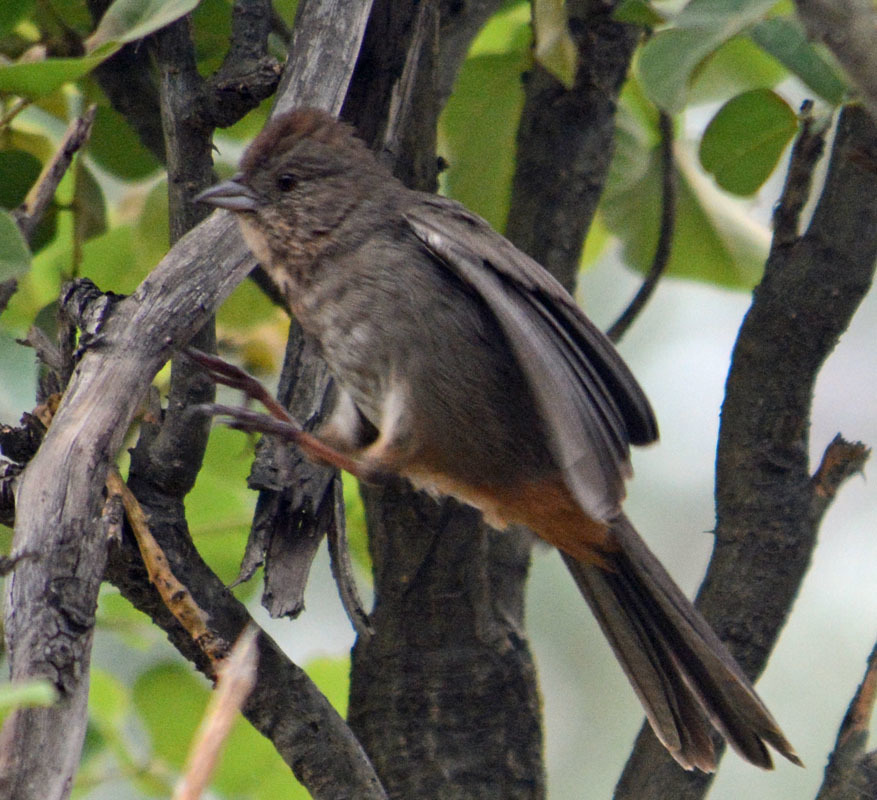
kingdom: Animalia
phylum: Chordata
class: Aves
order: Passeriformes
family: Passerellidae
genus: Melozone
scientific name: Melozone fusca
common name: Canyon towhee
